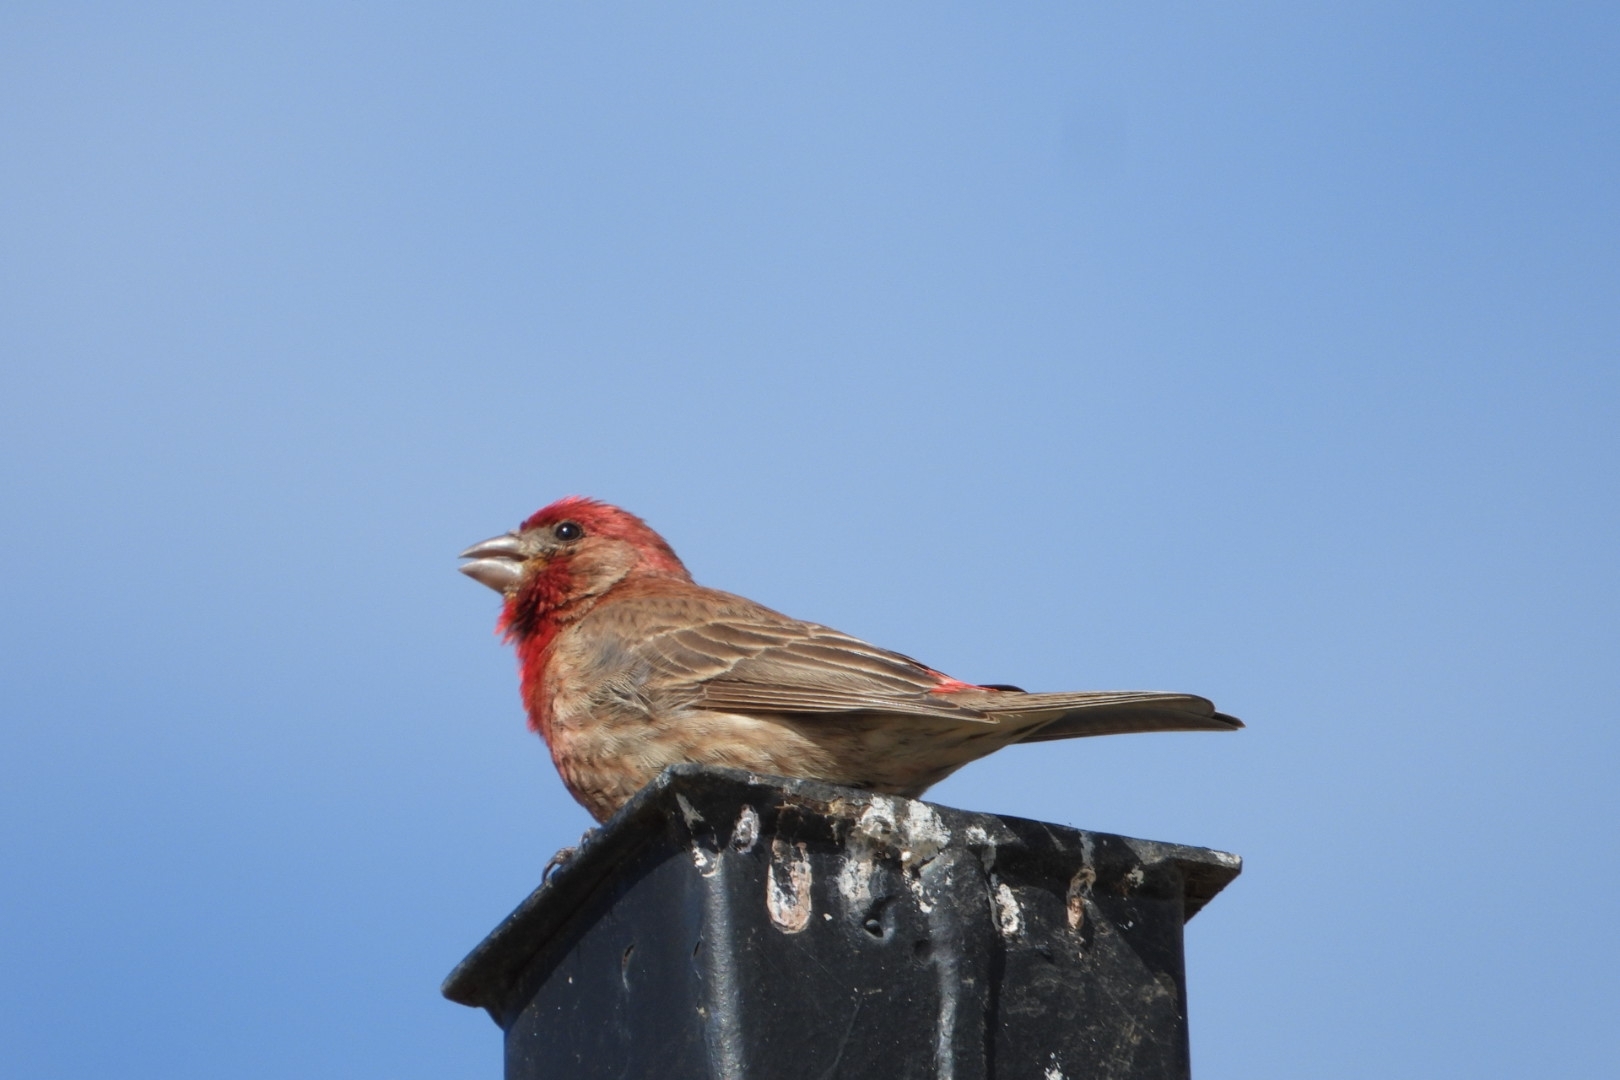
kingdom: Animalia
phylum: Chordata
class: Aves
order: Passeriformes
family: Fringillidae
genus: Haemorhous
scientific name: Haemorhous mexicanus
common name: House finch
